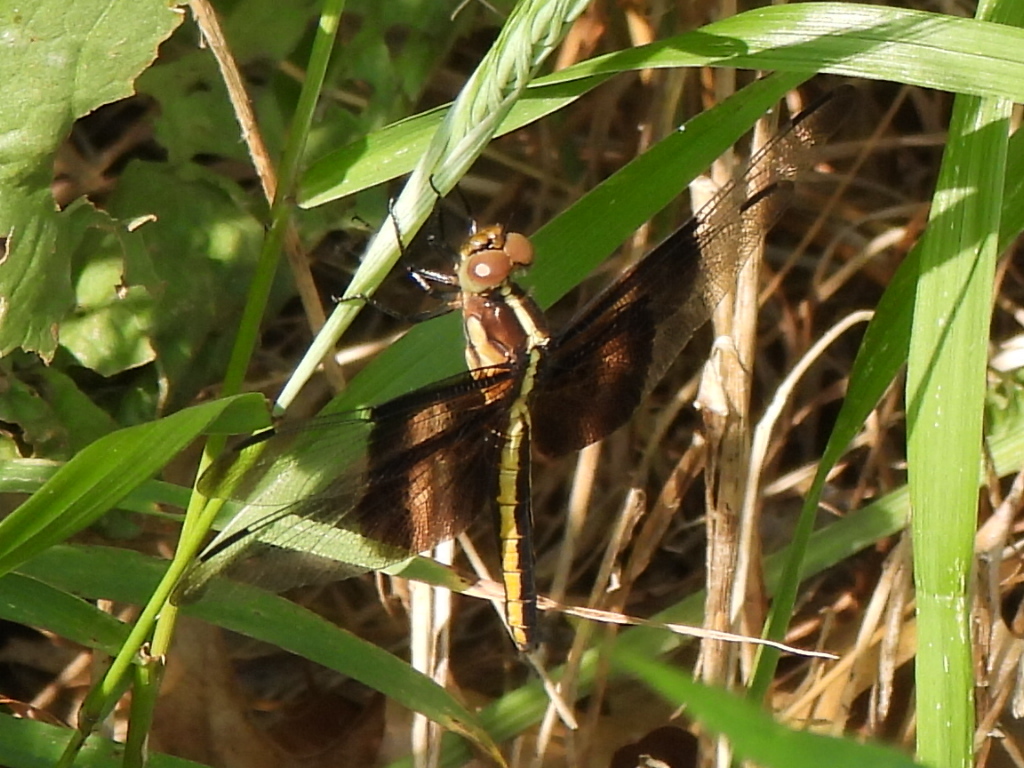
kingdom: Animalia
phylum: Arthropoda
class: Insecta
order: Odonata
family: Libellulidae
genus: Libellula
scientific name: Libellula luctuosa
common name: Widow skimmer
